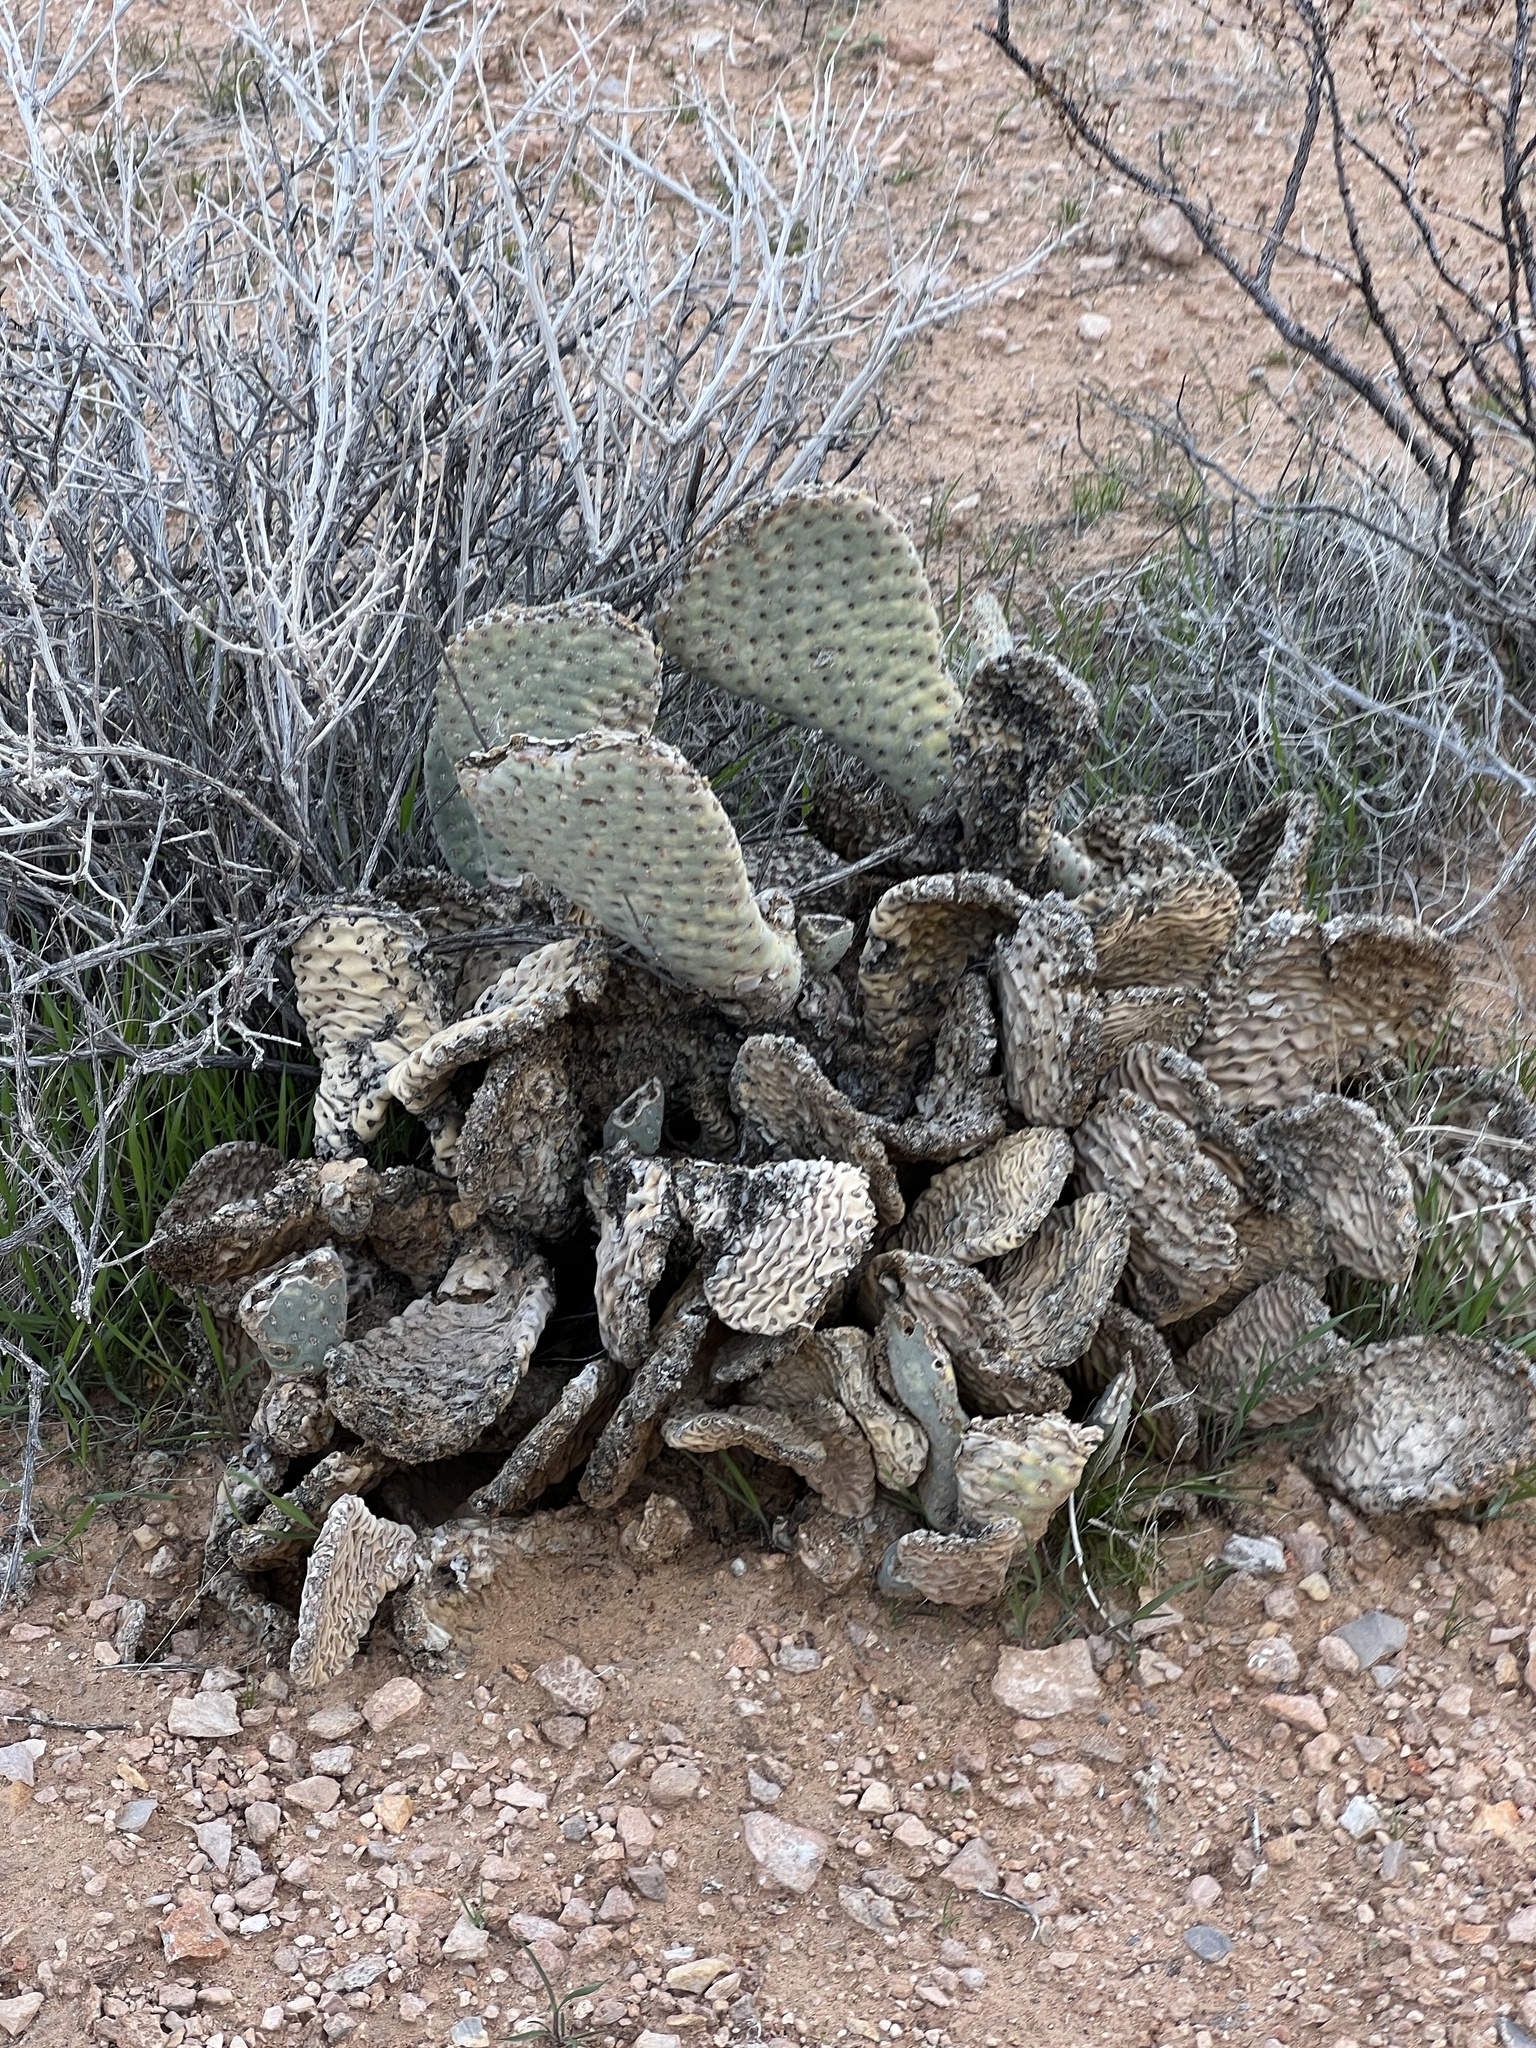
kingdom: Plantae
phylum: Tracheophyta
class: Magnoliopsida
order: Caryophyllales
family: Cactaceae
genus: Opuntia
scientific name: Opuntia basilaris
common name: Beavertail prickly-pear
